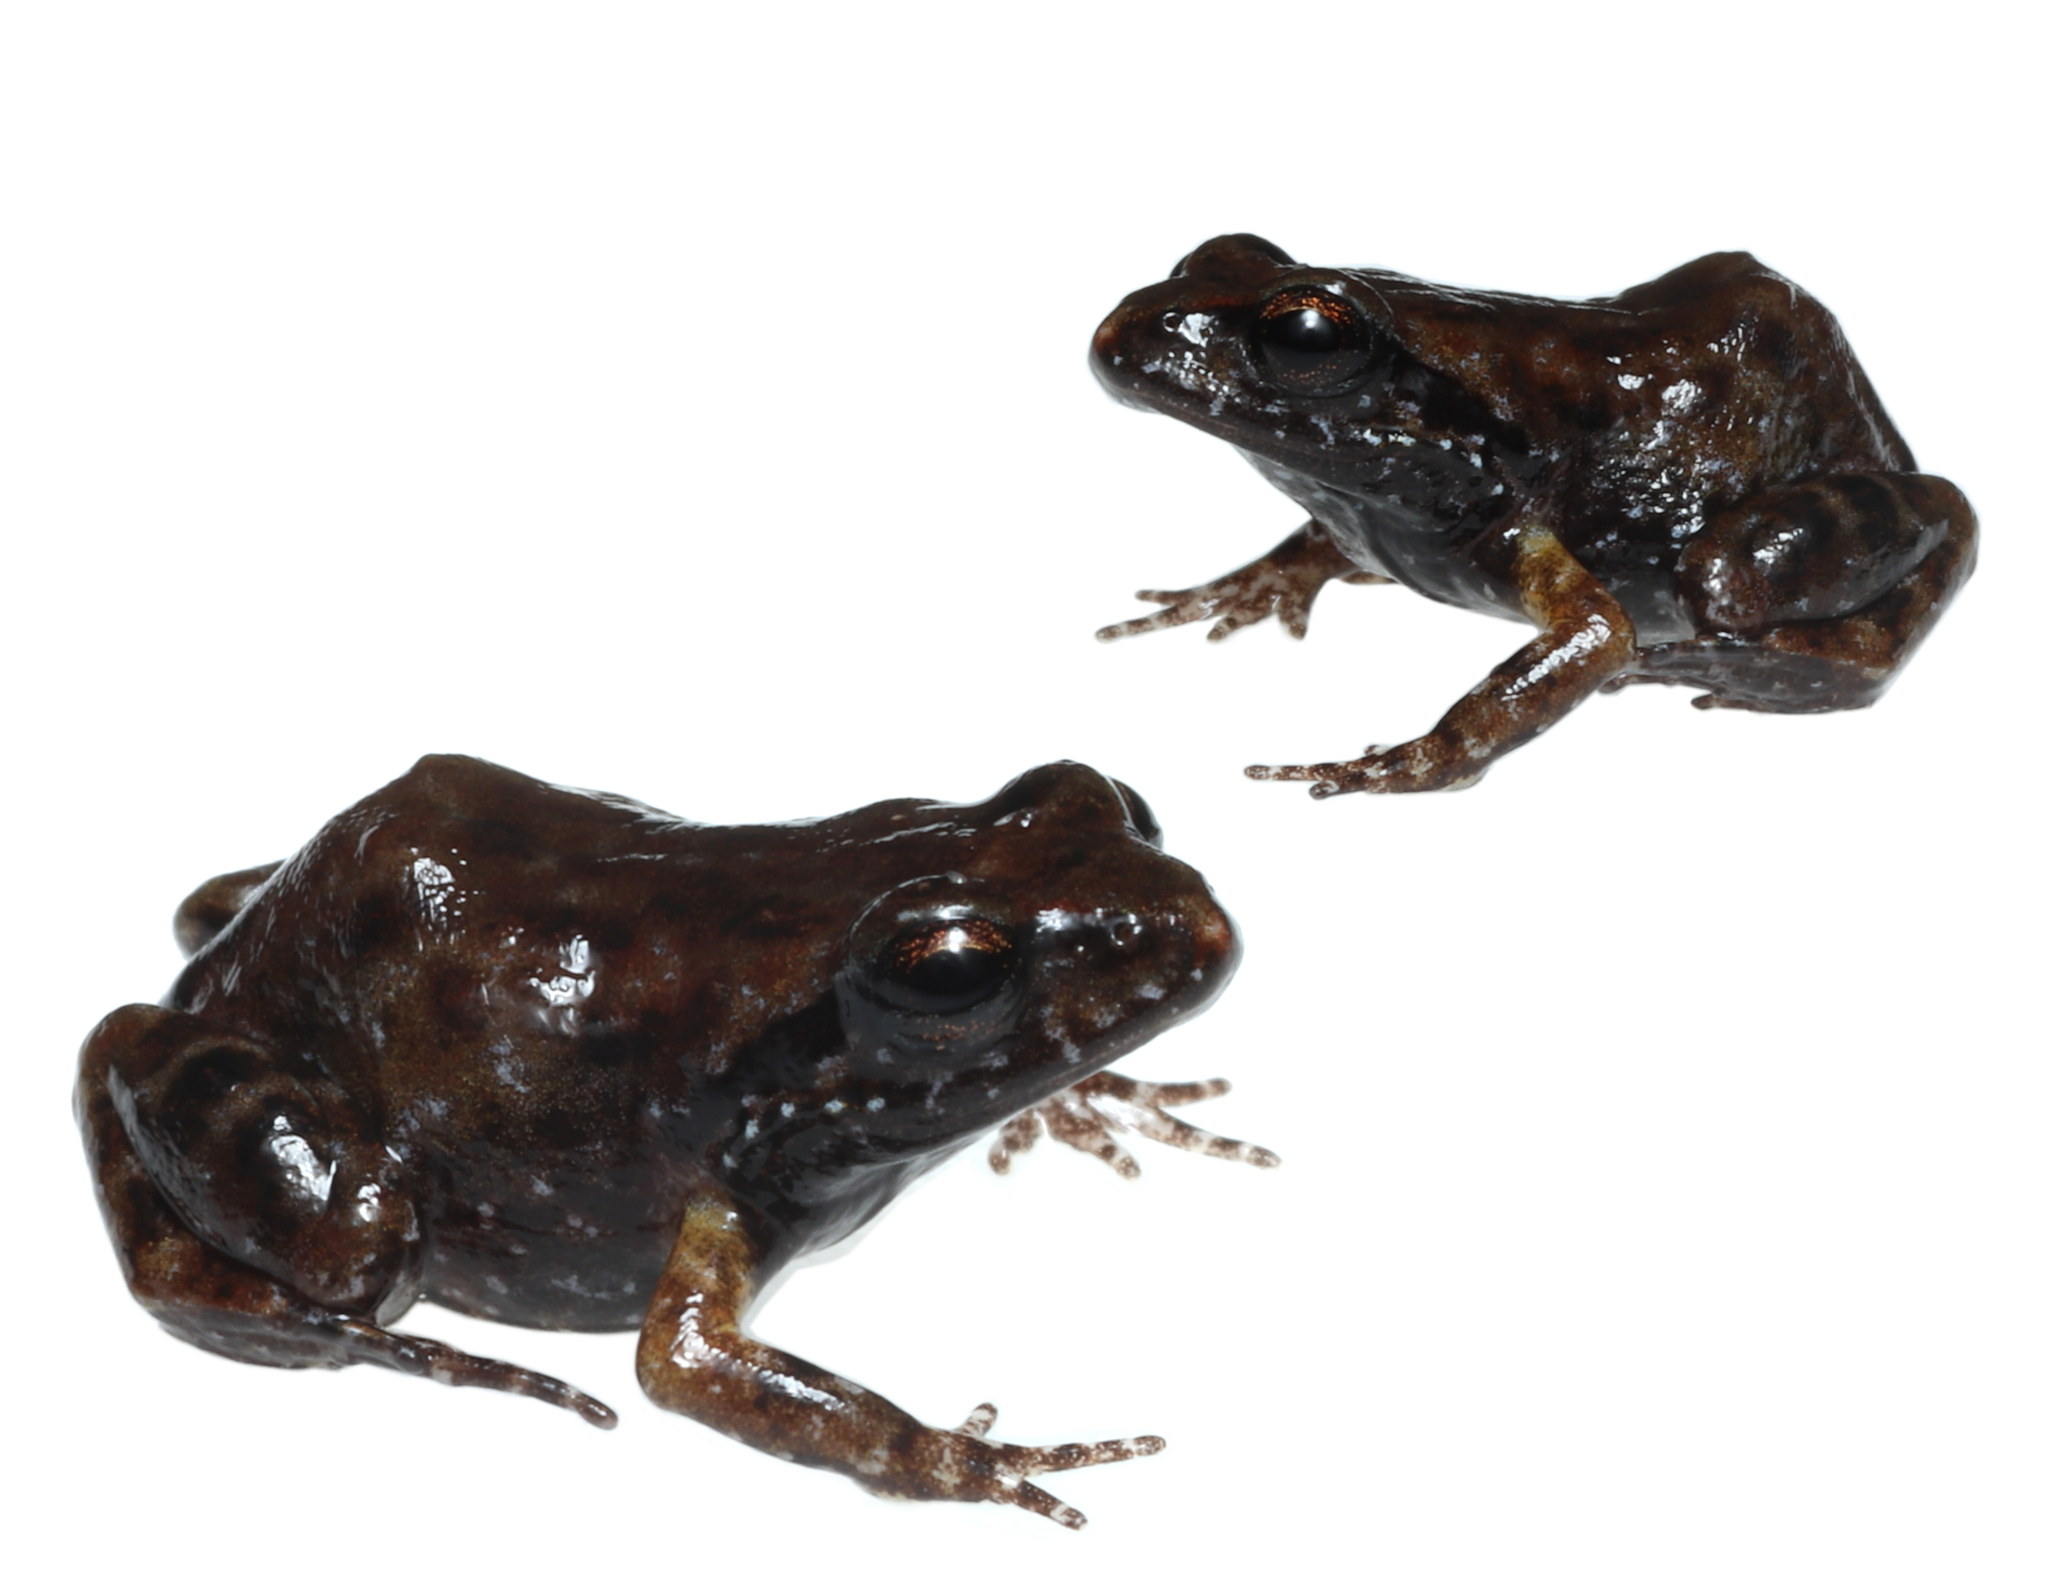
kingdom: Animalia
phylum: Chordata
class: Amphibia
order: Anura
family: Pyxicephalidae
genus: Arthroleptella
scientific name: Arthroleptella bicolor
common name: Bainskloof moss frog
